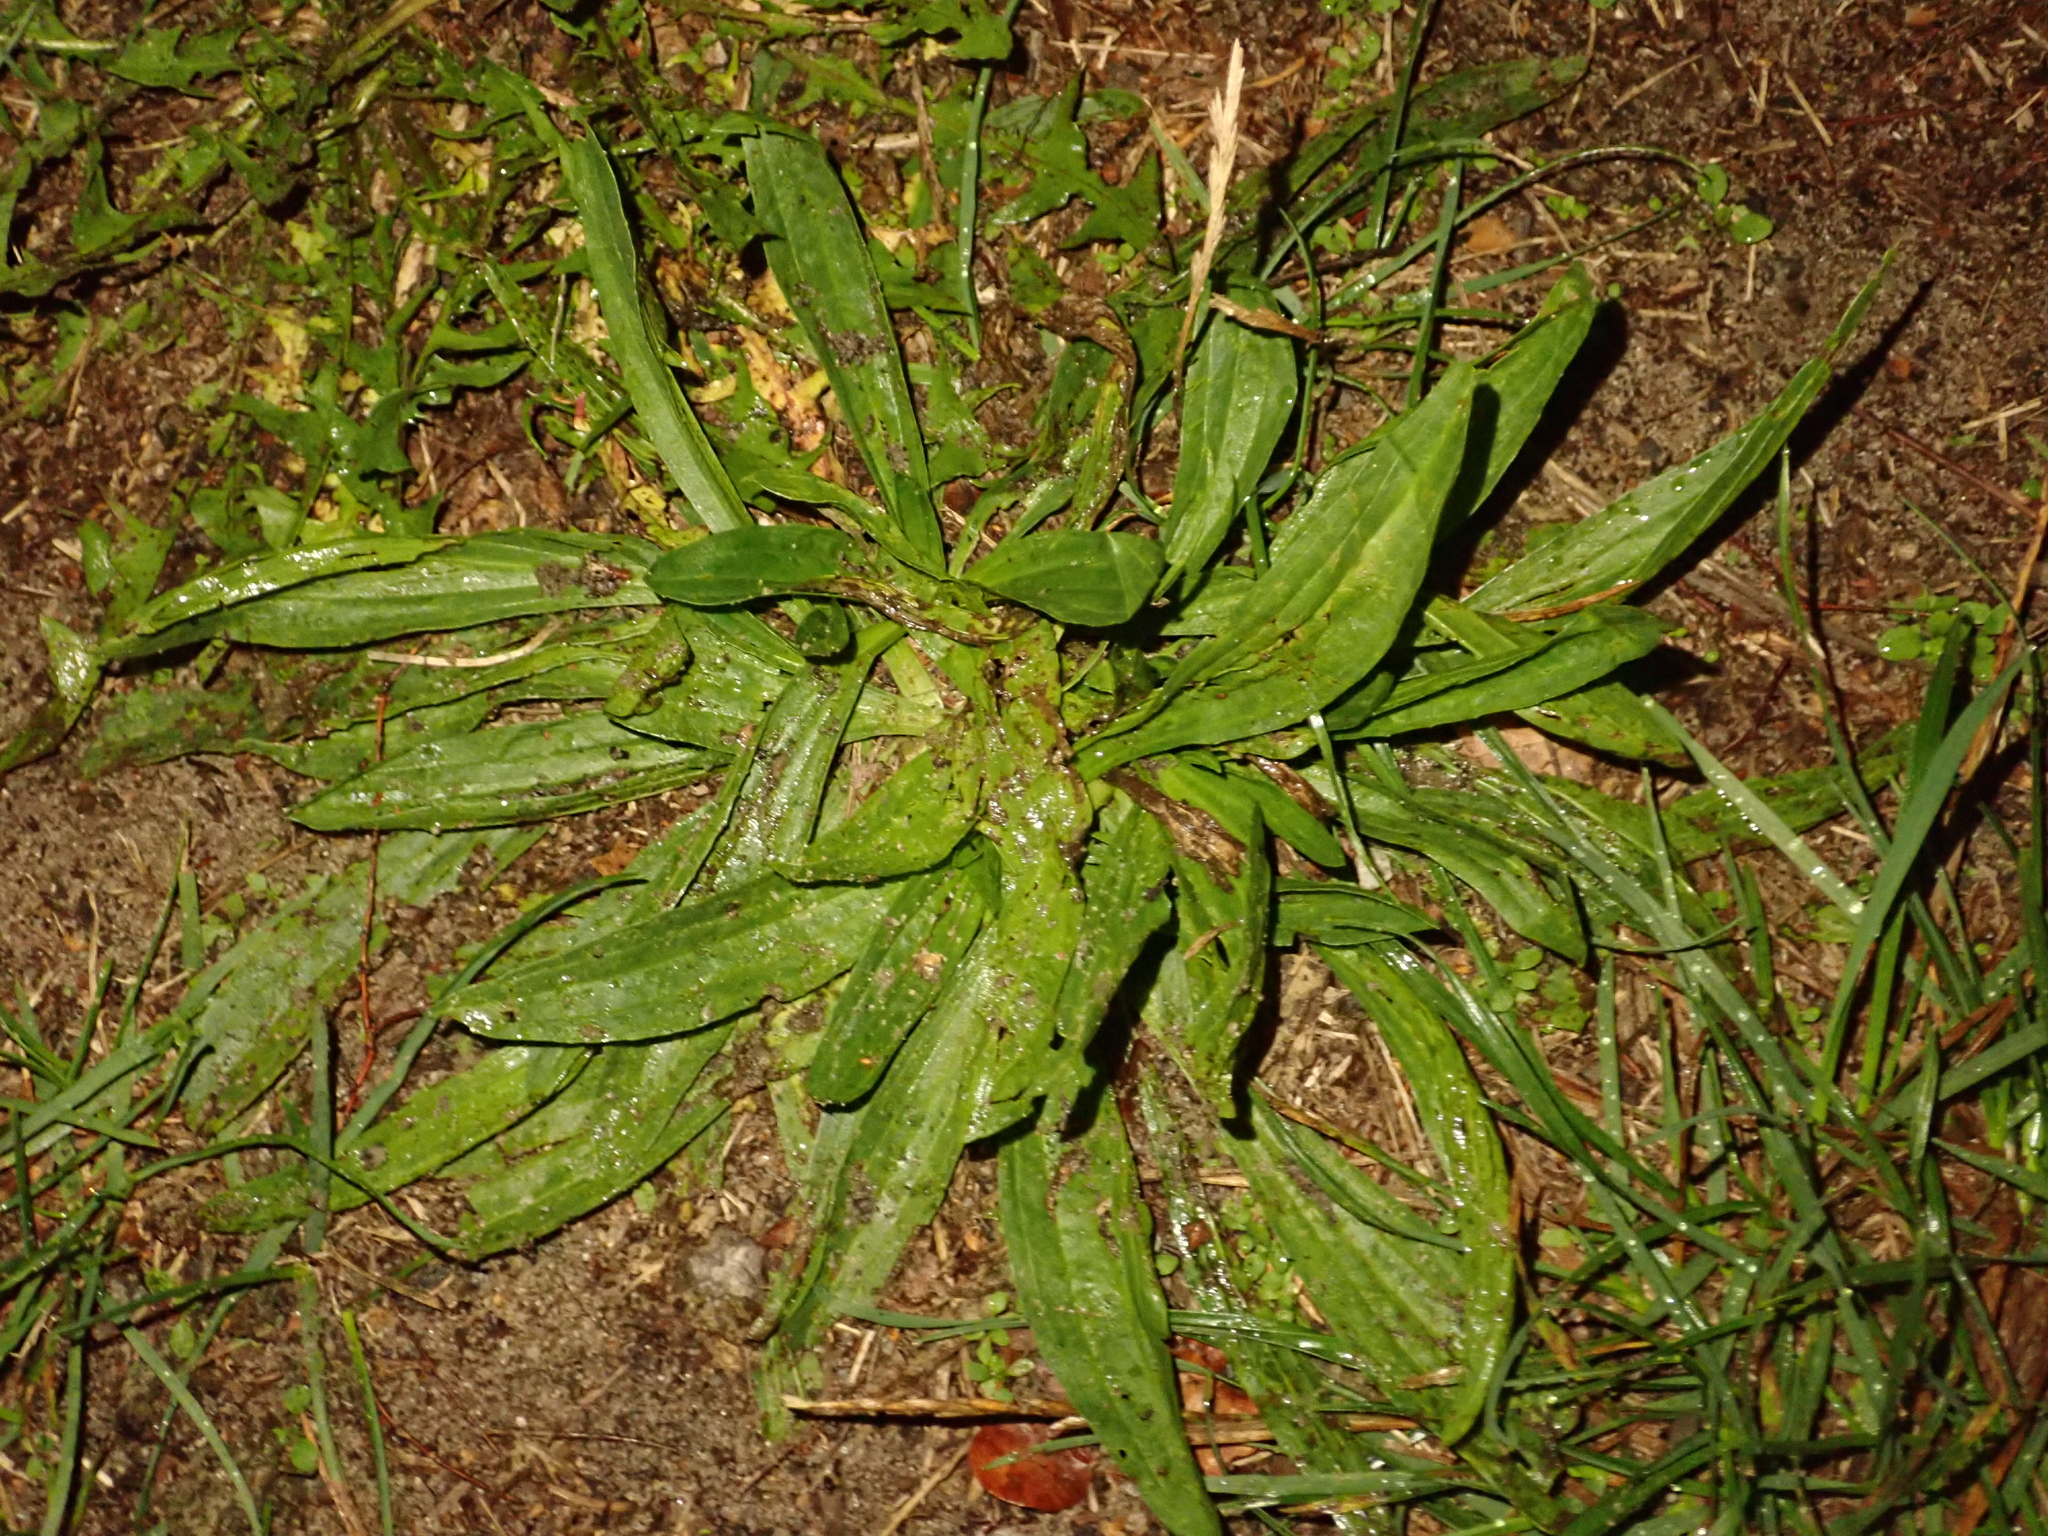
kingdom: Plantae
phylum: Tracheophyta
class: Magnoliopsida
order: Lamiales
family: Plantaginaceae
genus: Plantago
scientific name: Plantago lanceolata
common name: Ribwort plantain
